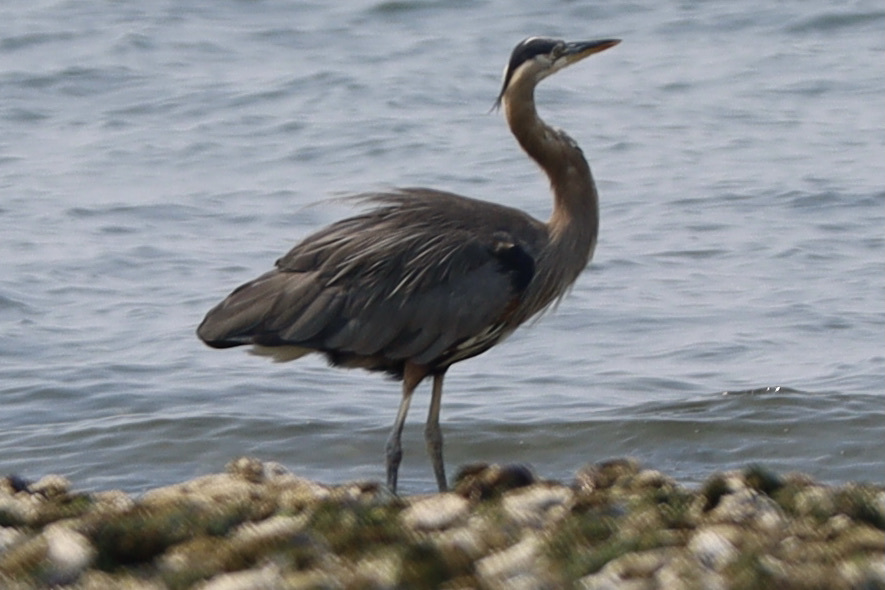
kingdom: Animalia
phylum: Chordata
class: Aves
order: Pelecaniformes
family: Ardeidae
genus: Ardea
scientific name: Ardea herodias
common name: Great blue heron
